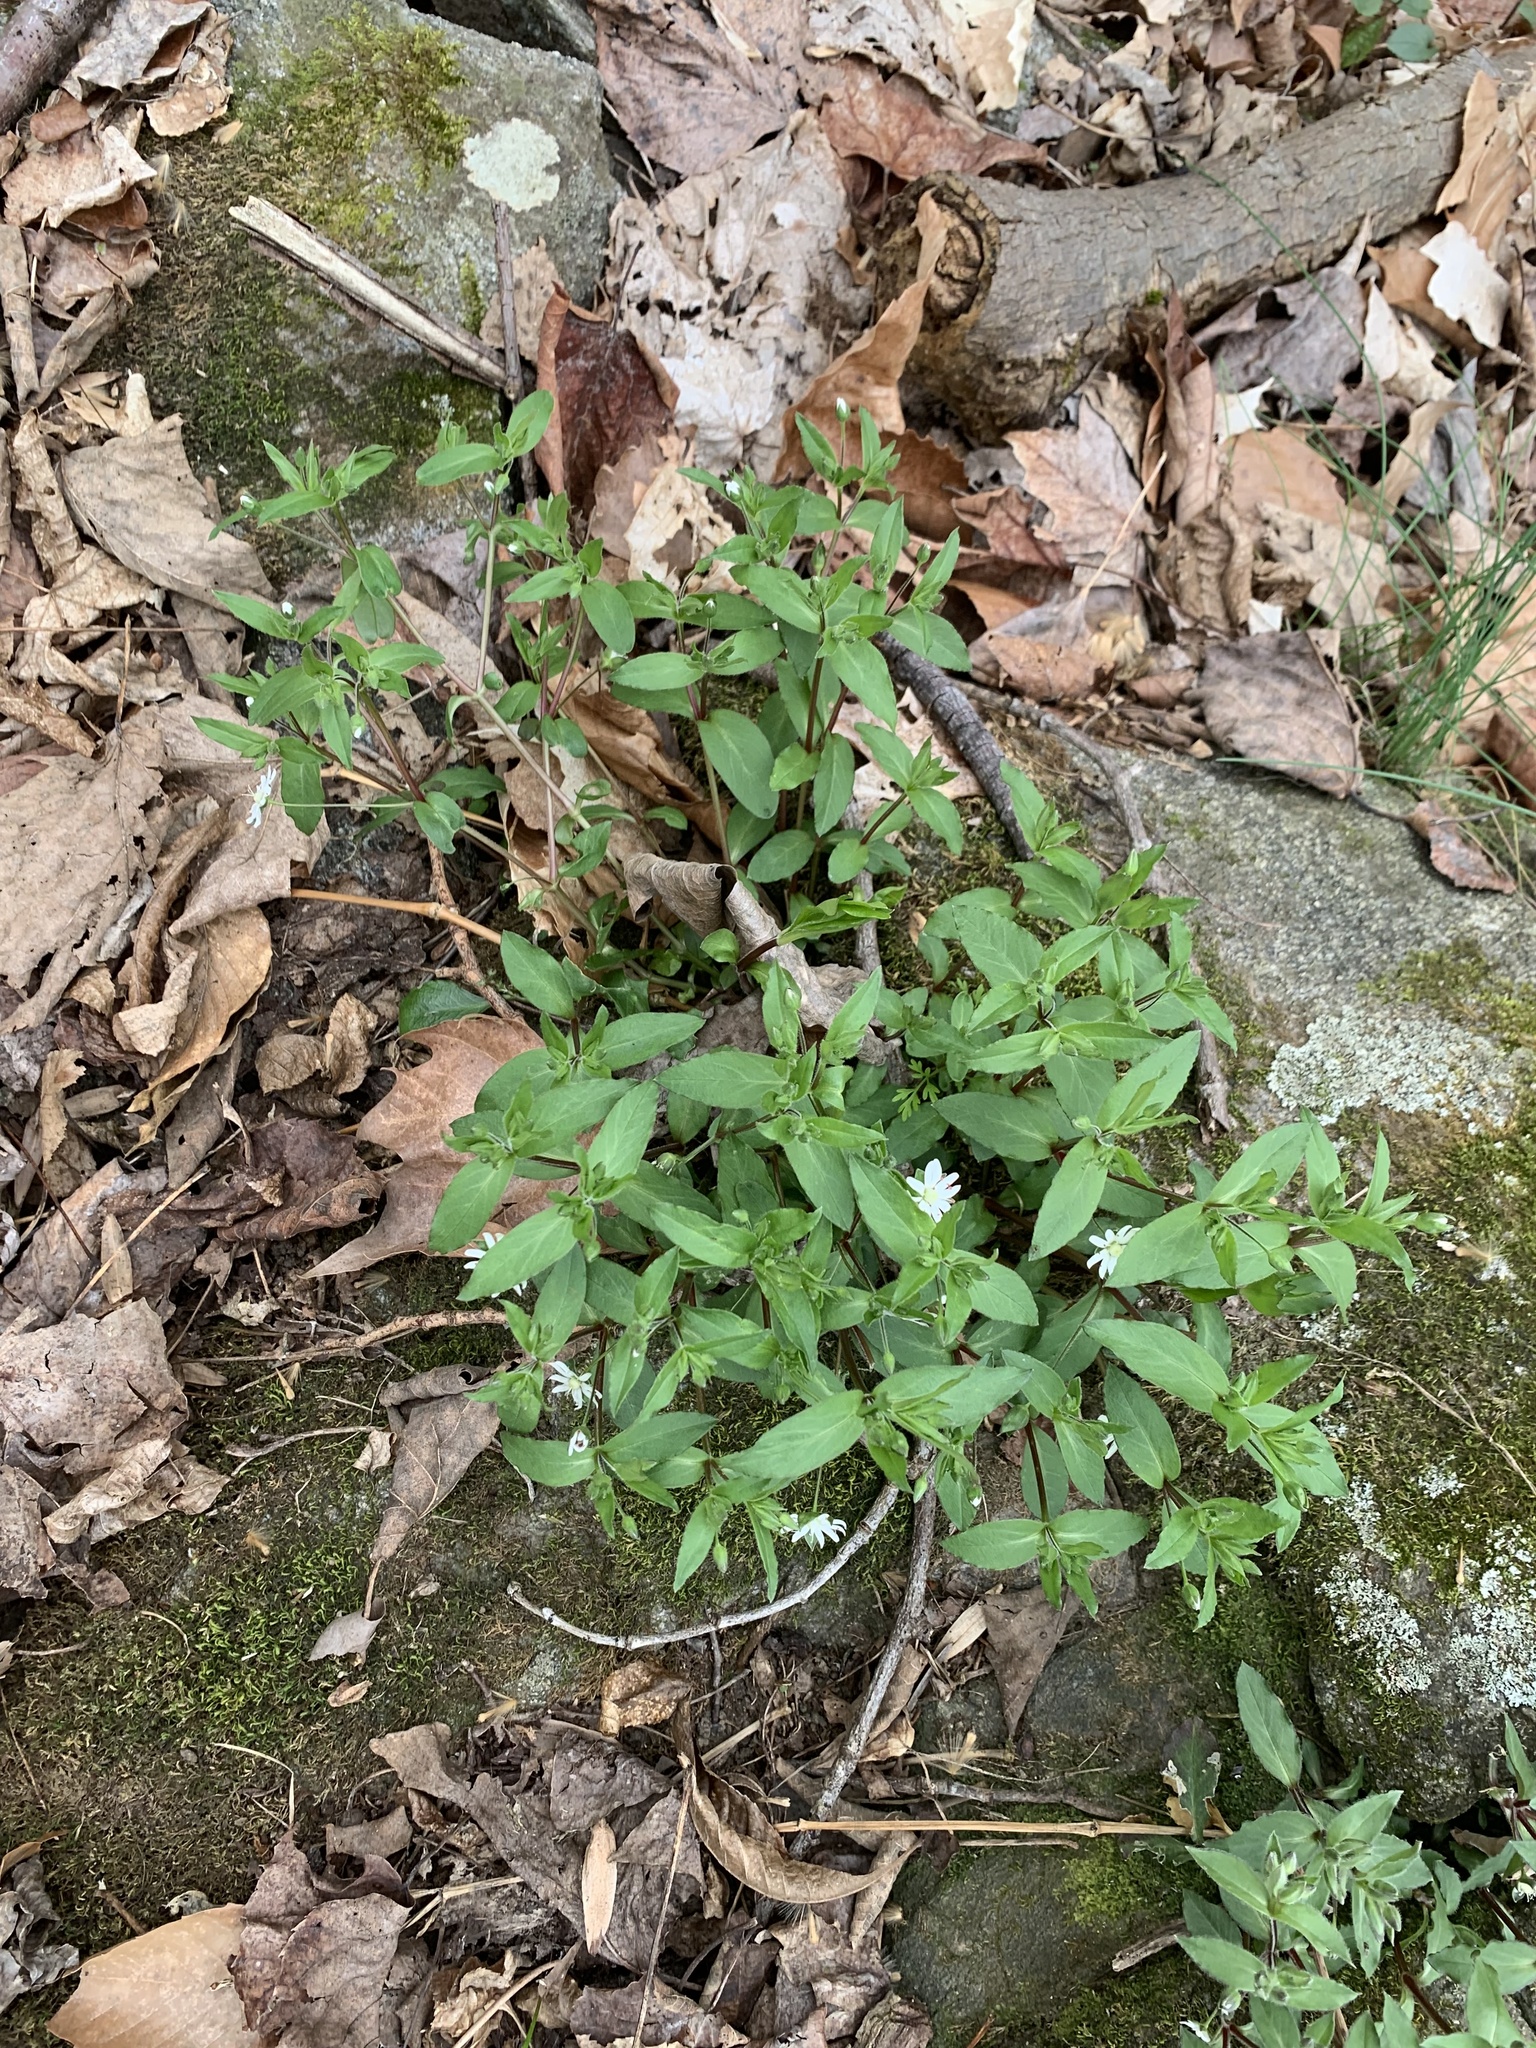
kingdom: Plantae
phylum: Tracheophyta
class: Magnoliopsida
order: Caryophyllales
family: Caryophyllaceae
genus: Stellaria
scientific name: Stellaria pubera
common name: Star chickweed
